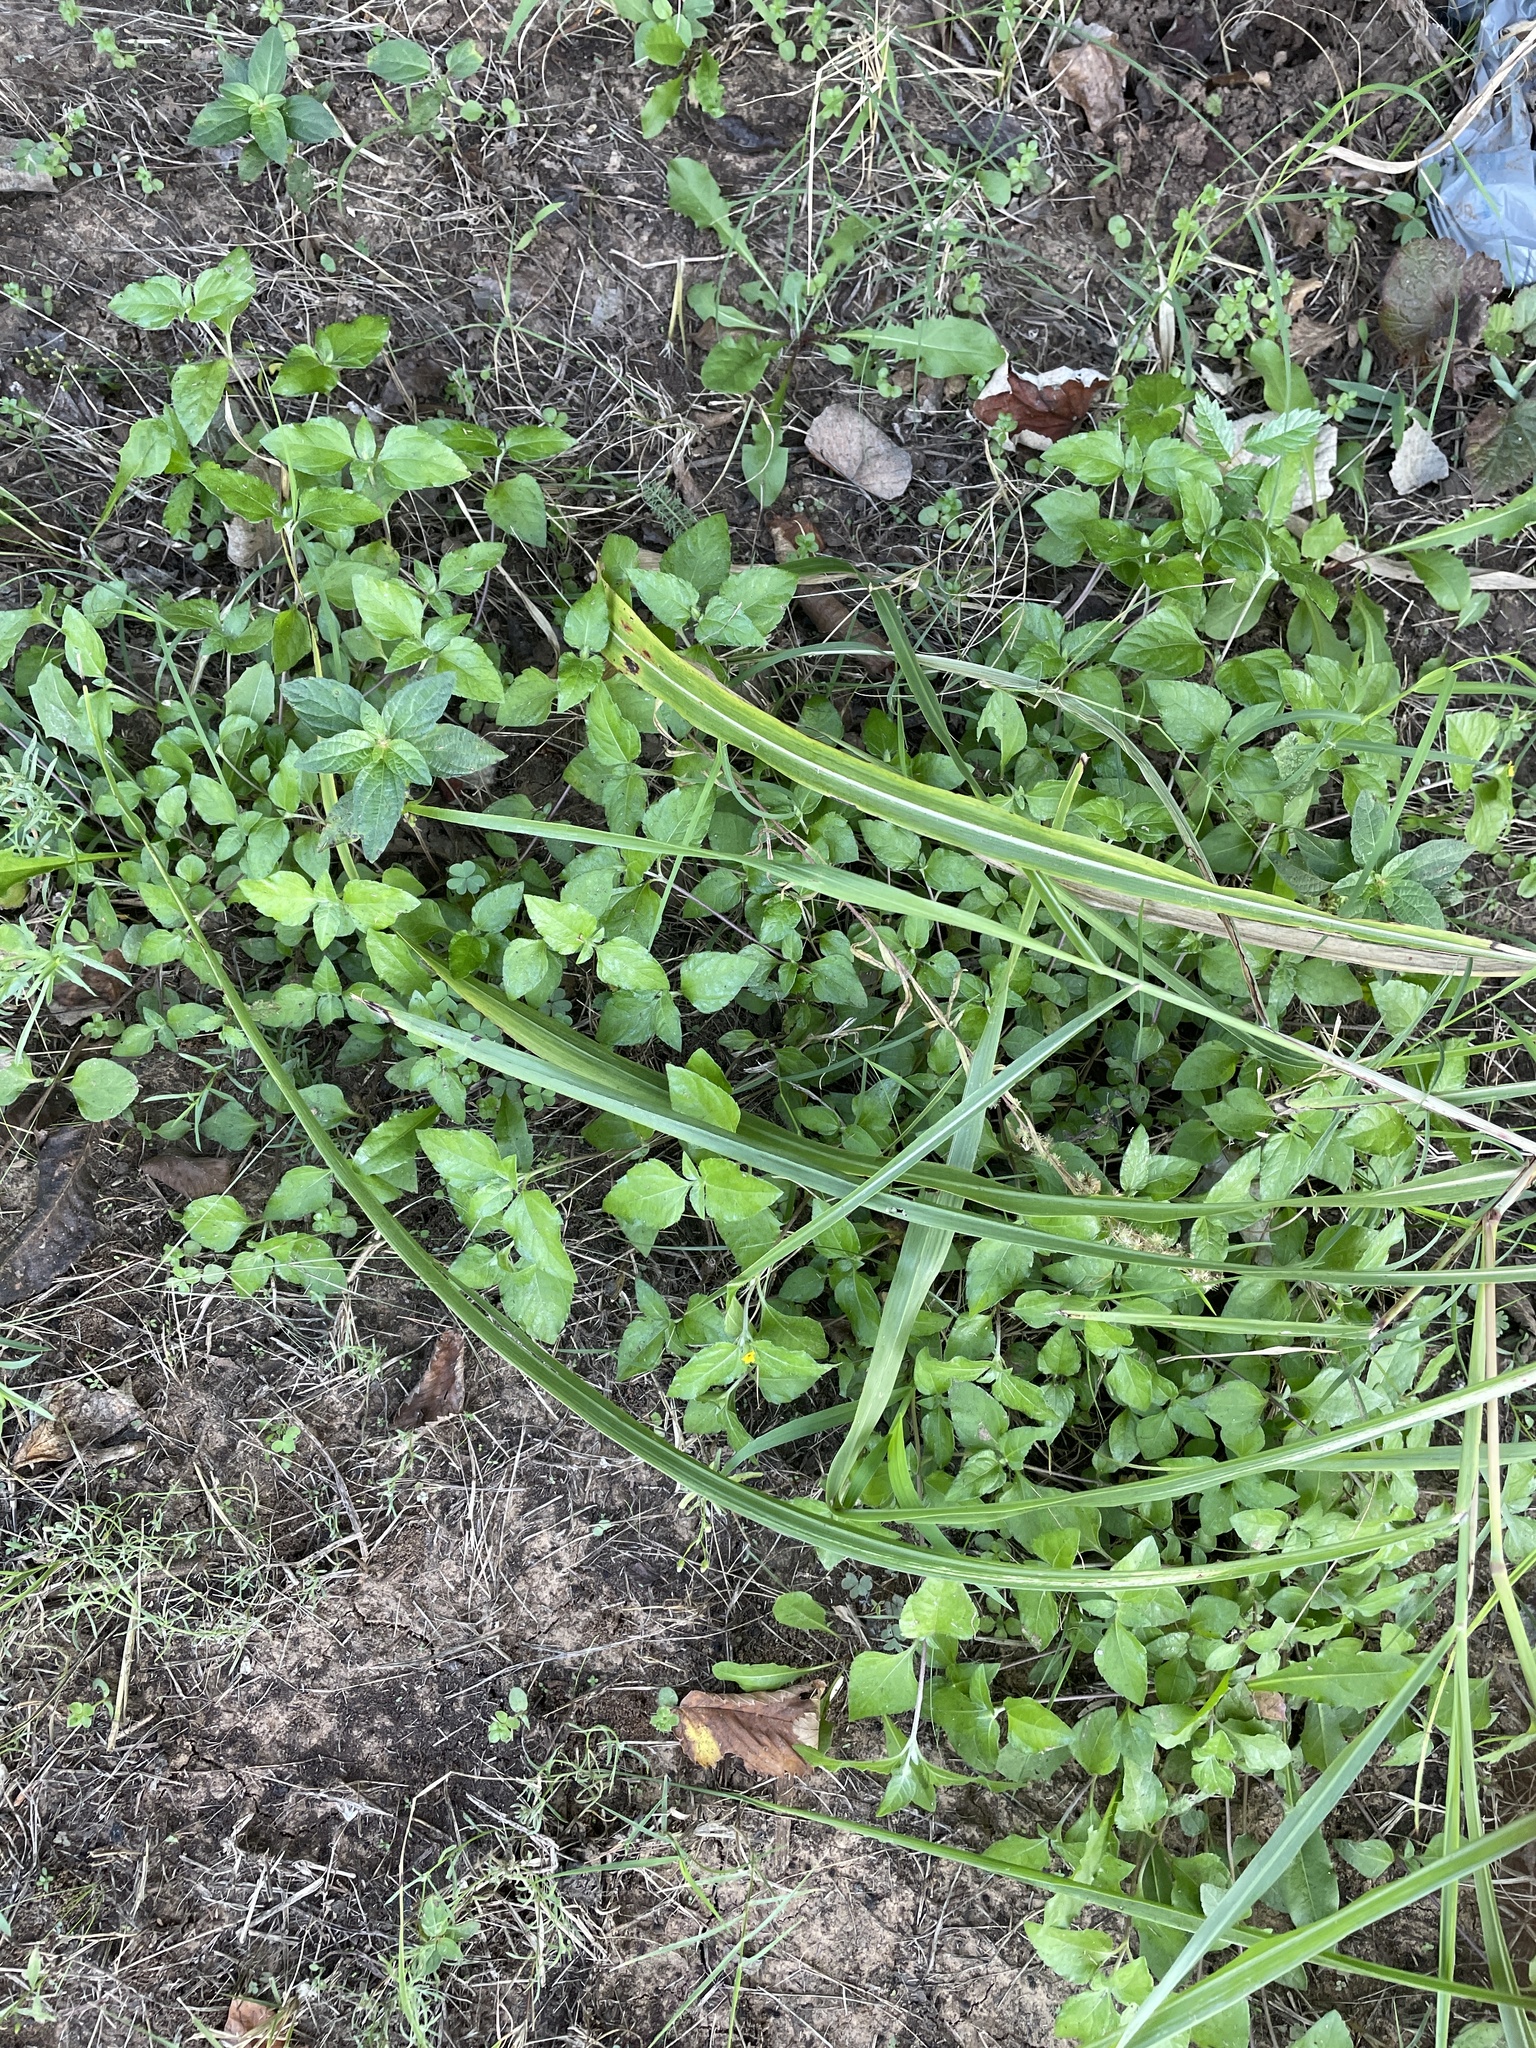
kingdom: Plantae
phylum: Tracheophyta
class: Magnoliopsida
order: Asterales
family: Asteraceae
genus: Calyptocarpus
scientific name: Calyptocarpus vialis
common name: Straggler daisy
